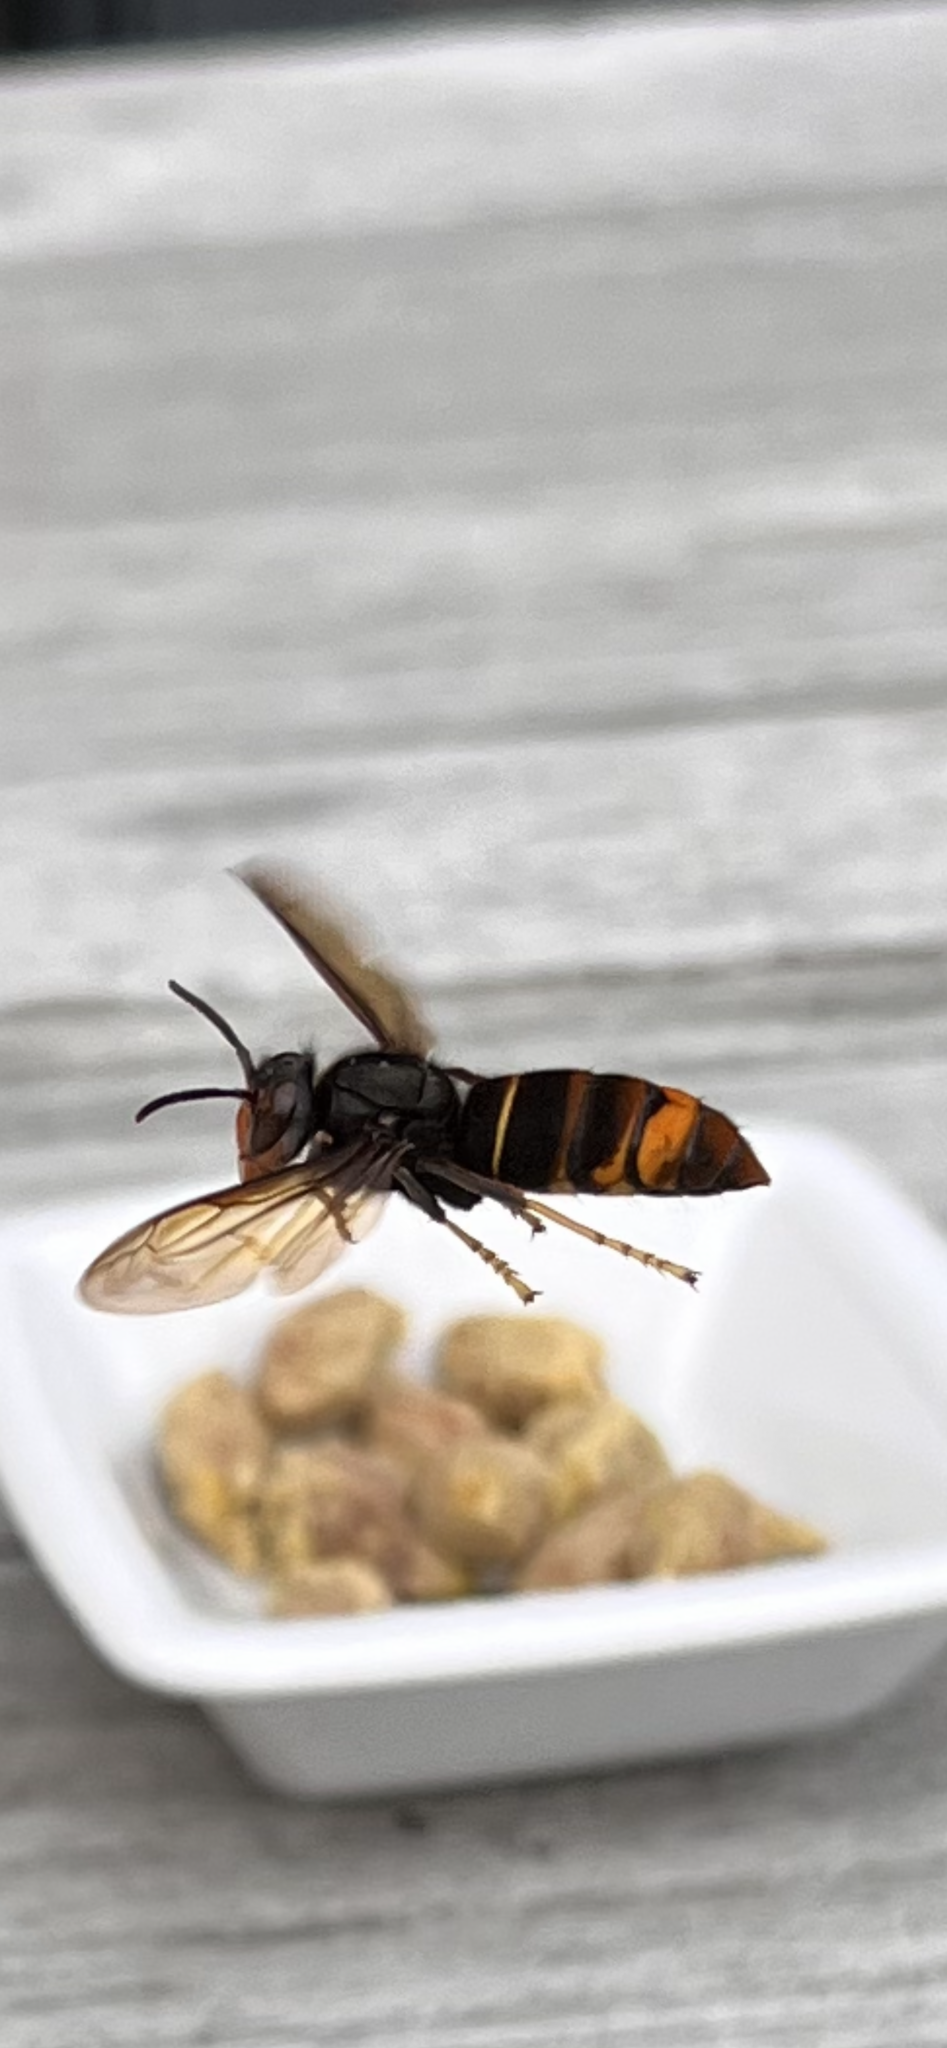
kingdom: Animalia
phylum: Arthropoda
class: Insecta
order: Hymenoptera
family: Vespidae
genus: Vespa
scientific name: Vespa velutina
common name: Asian hornet
